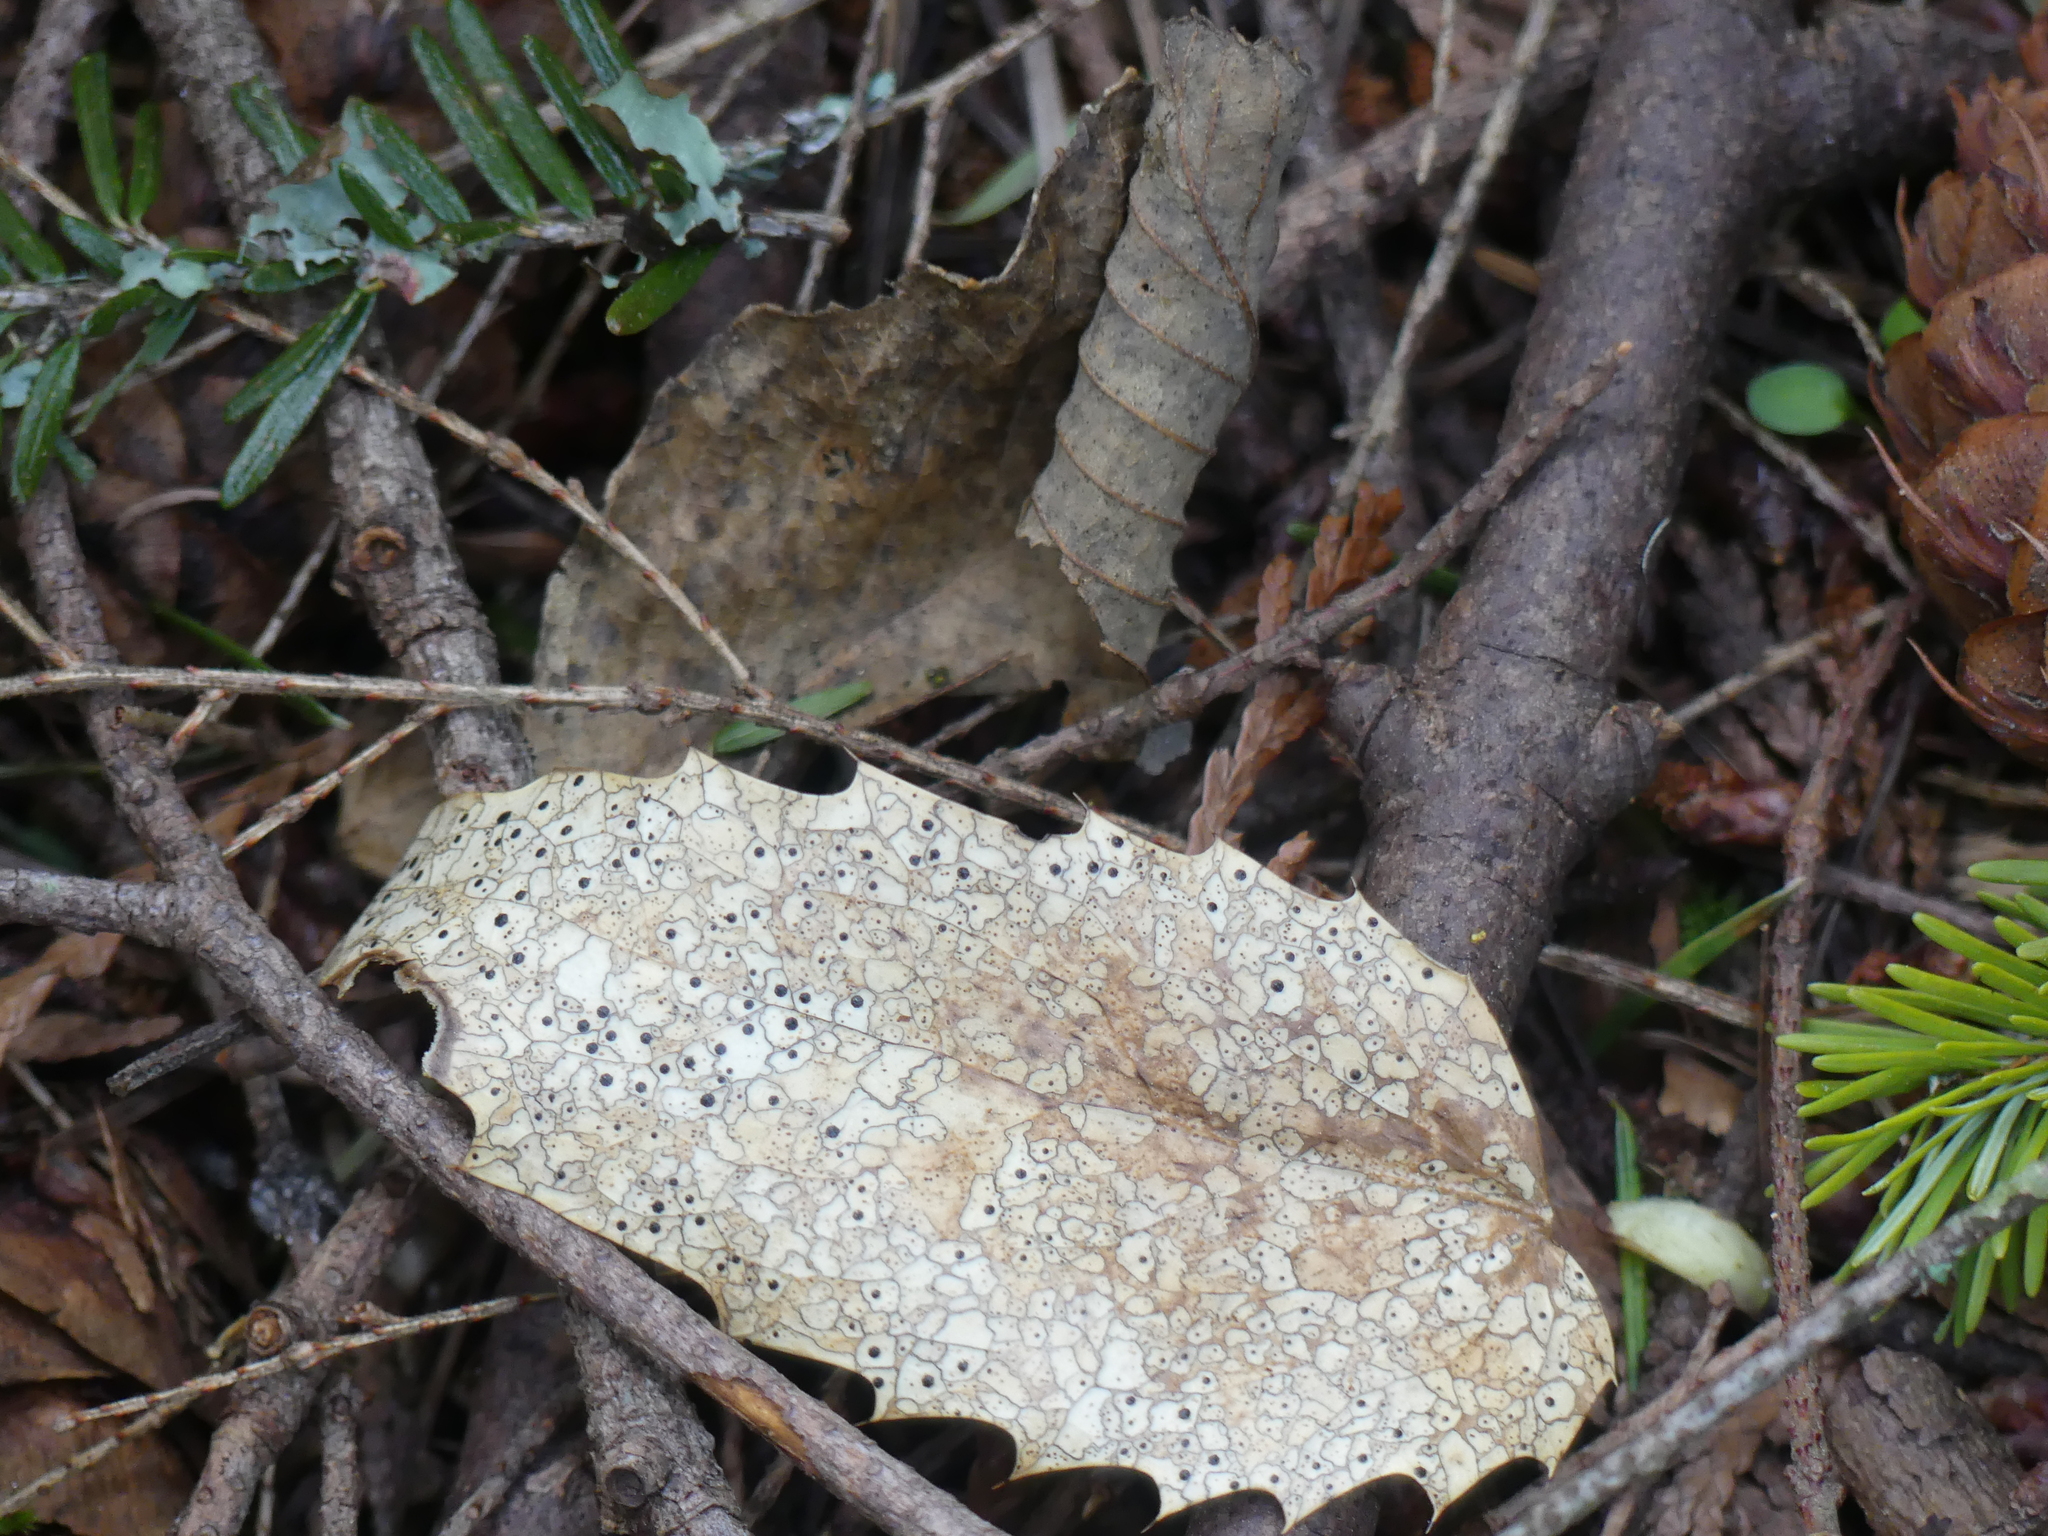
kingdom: Fungi
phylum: Ascomycota
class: Leotiomycetes
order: Rhytismatales
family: Rhytismataceae
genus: Coccomyces
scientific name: Coccomyces dentatus
